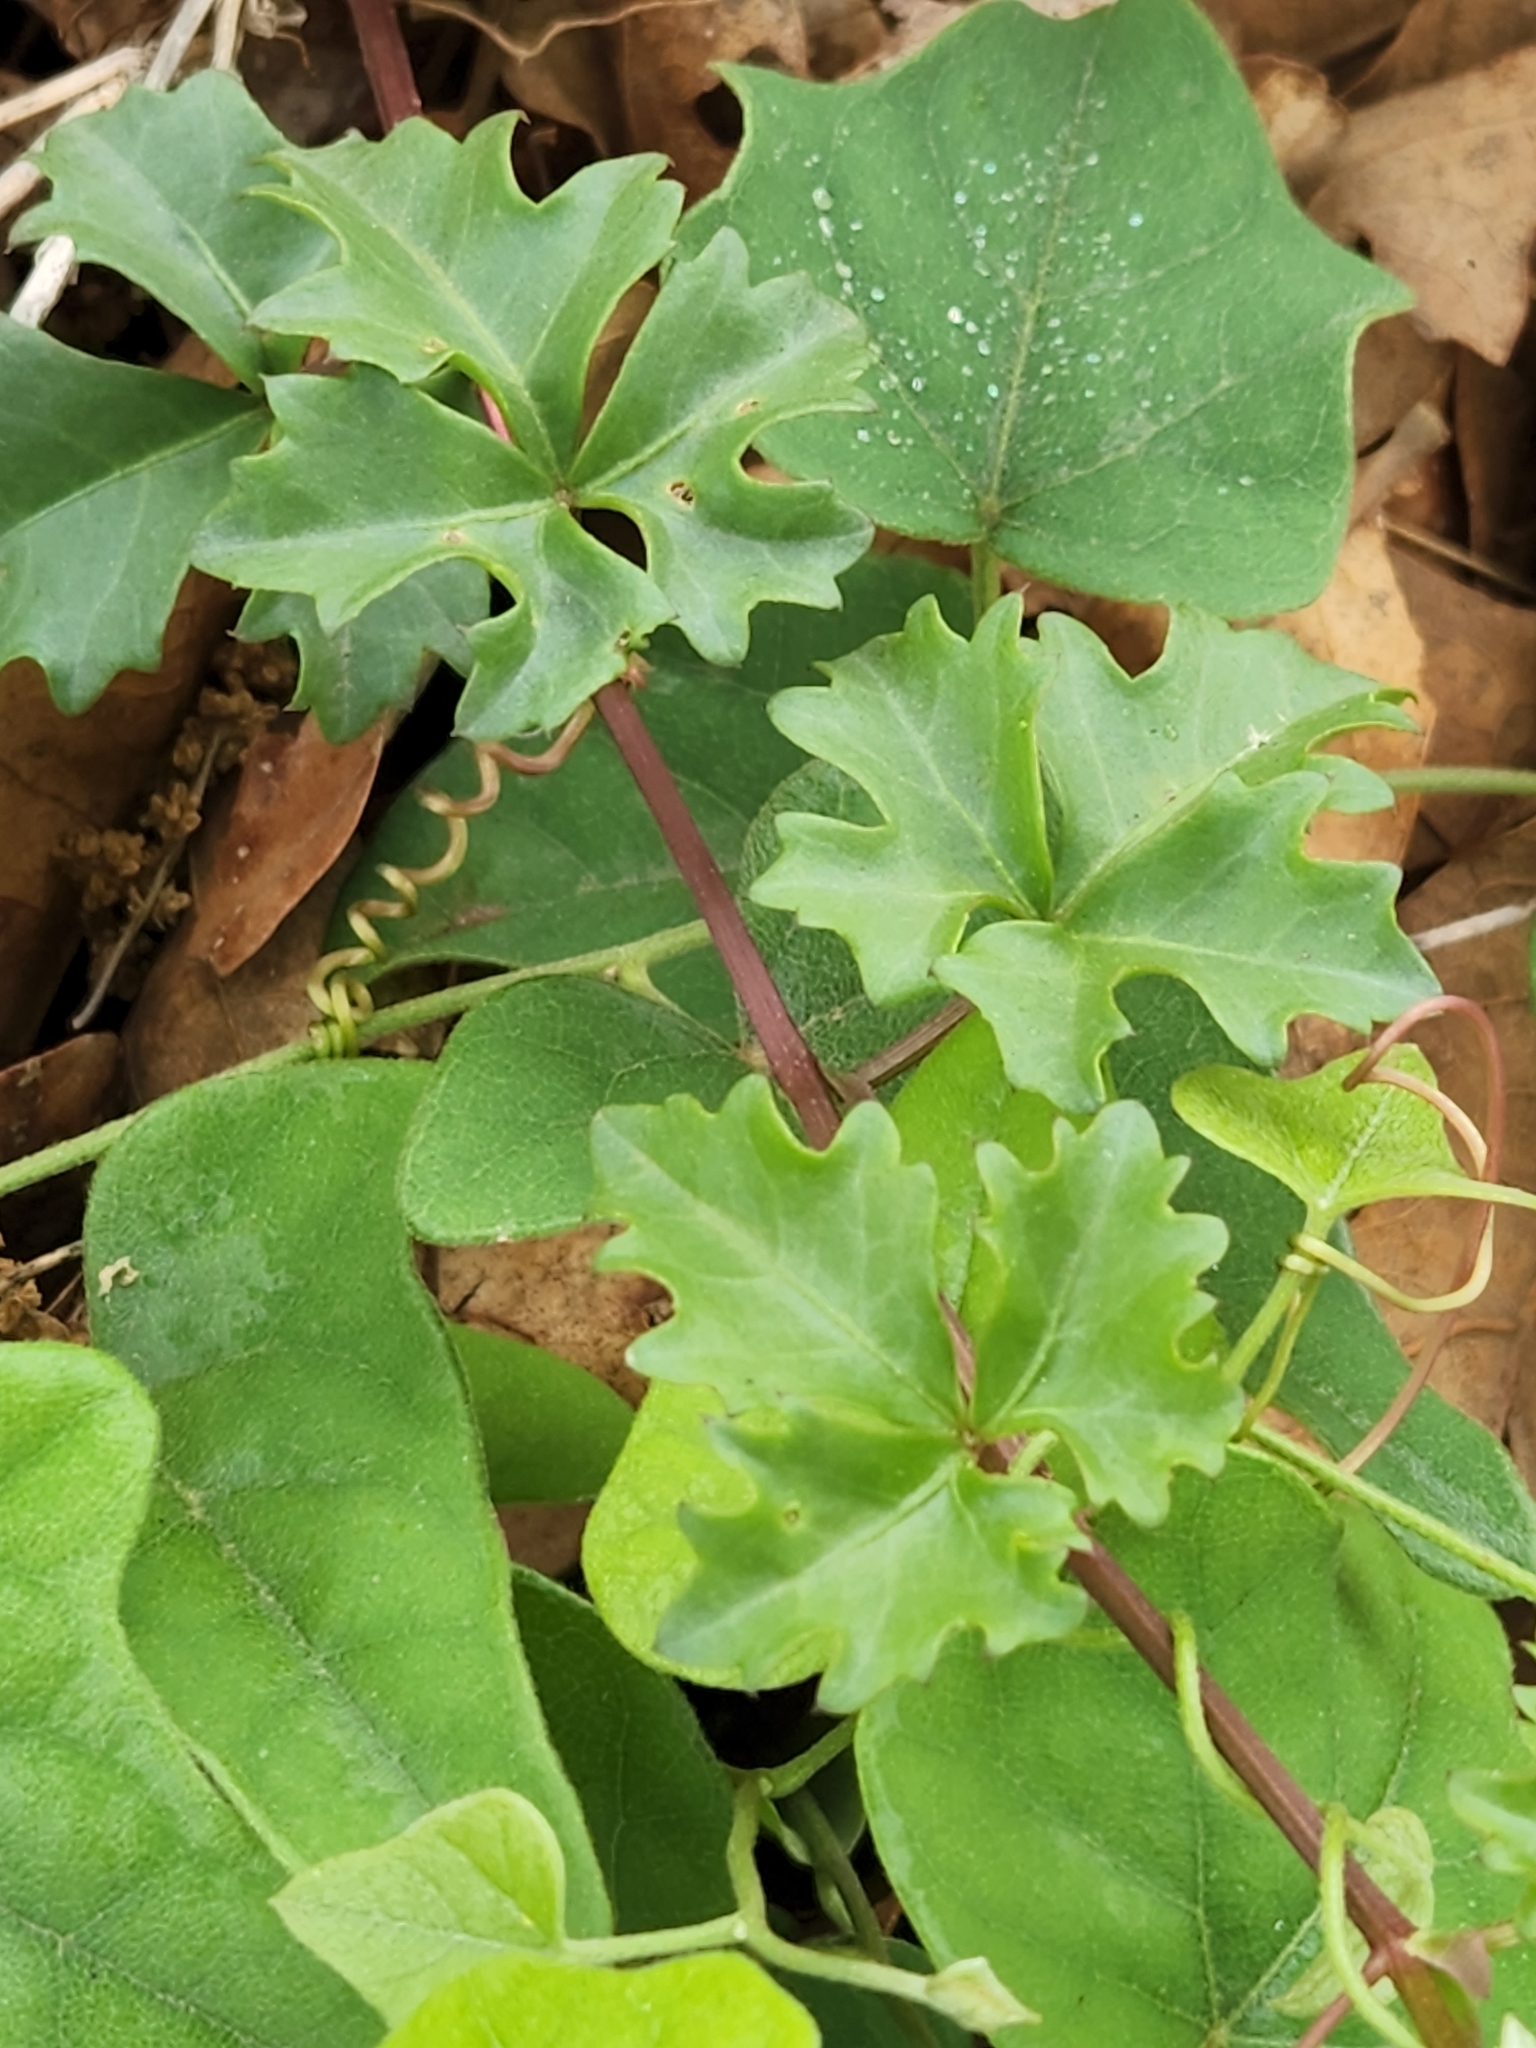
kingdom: Plantae
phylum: Tracheophyta
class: Magnoliopsida
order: Vitales
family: Vitaceae
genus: Cissus
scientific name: Cissus trifoliata
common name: Vine-sorrel
